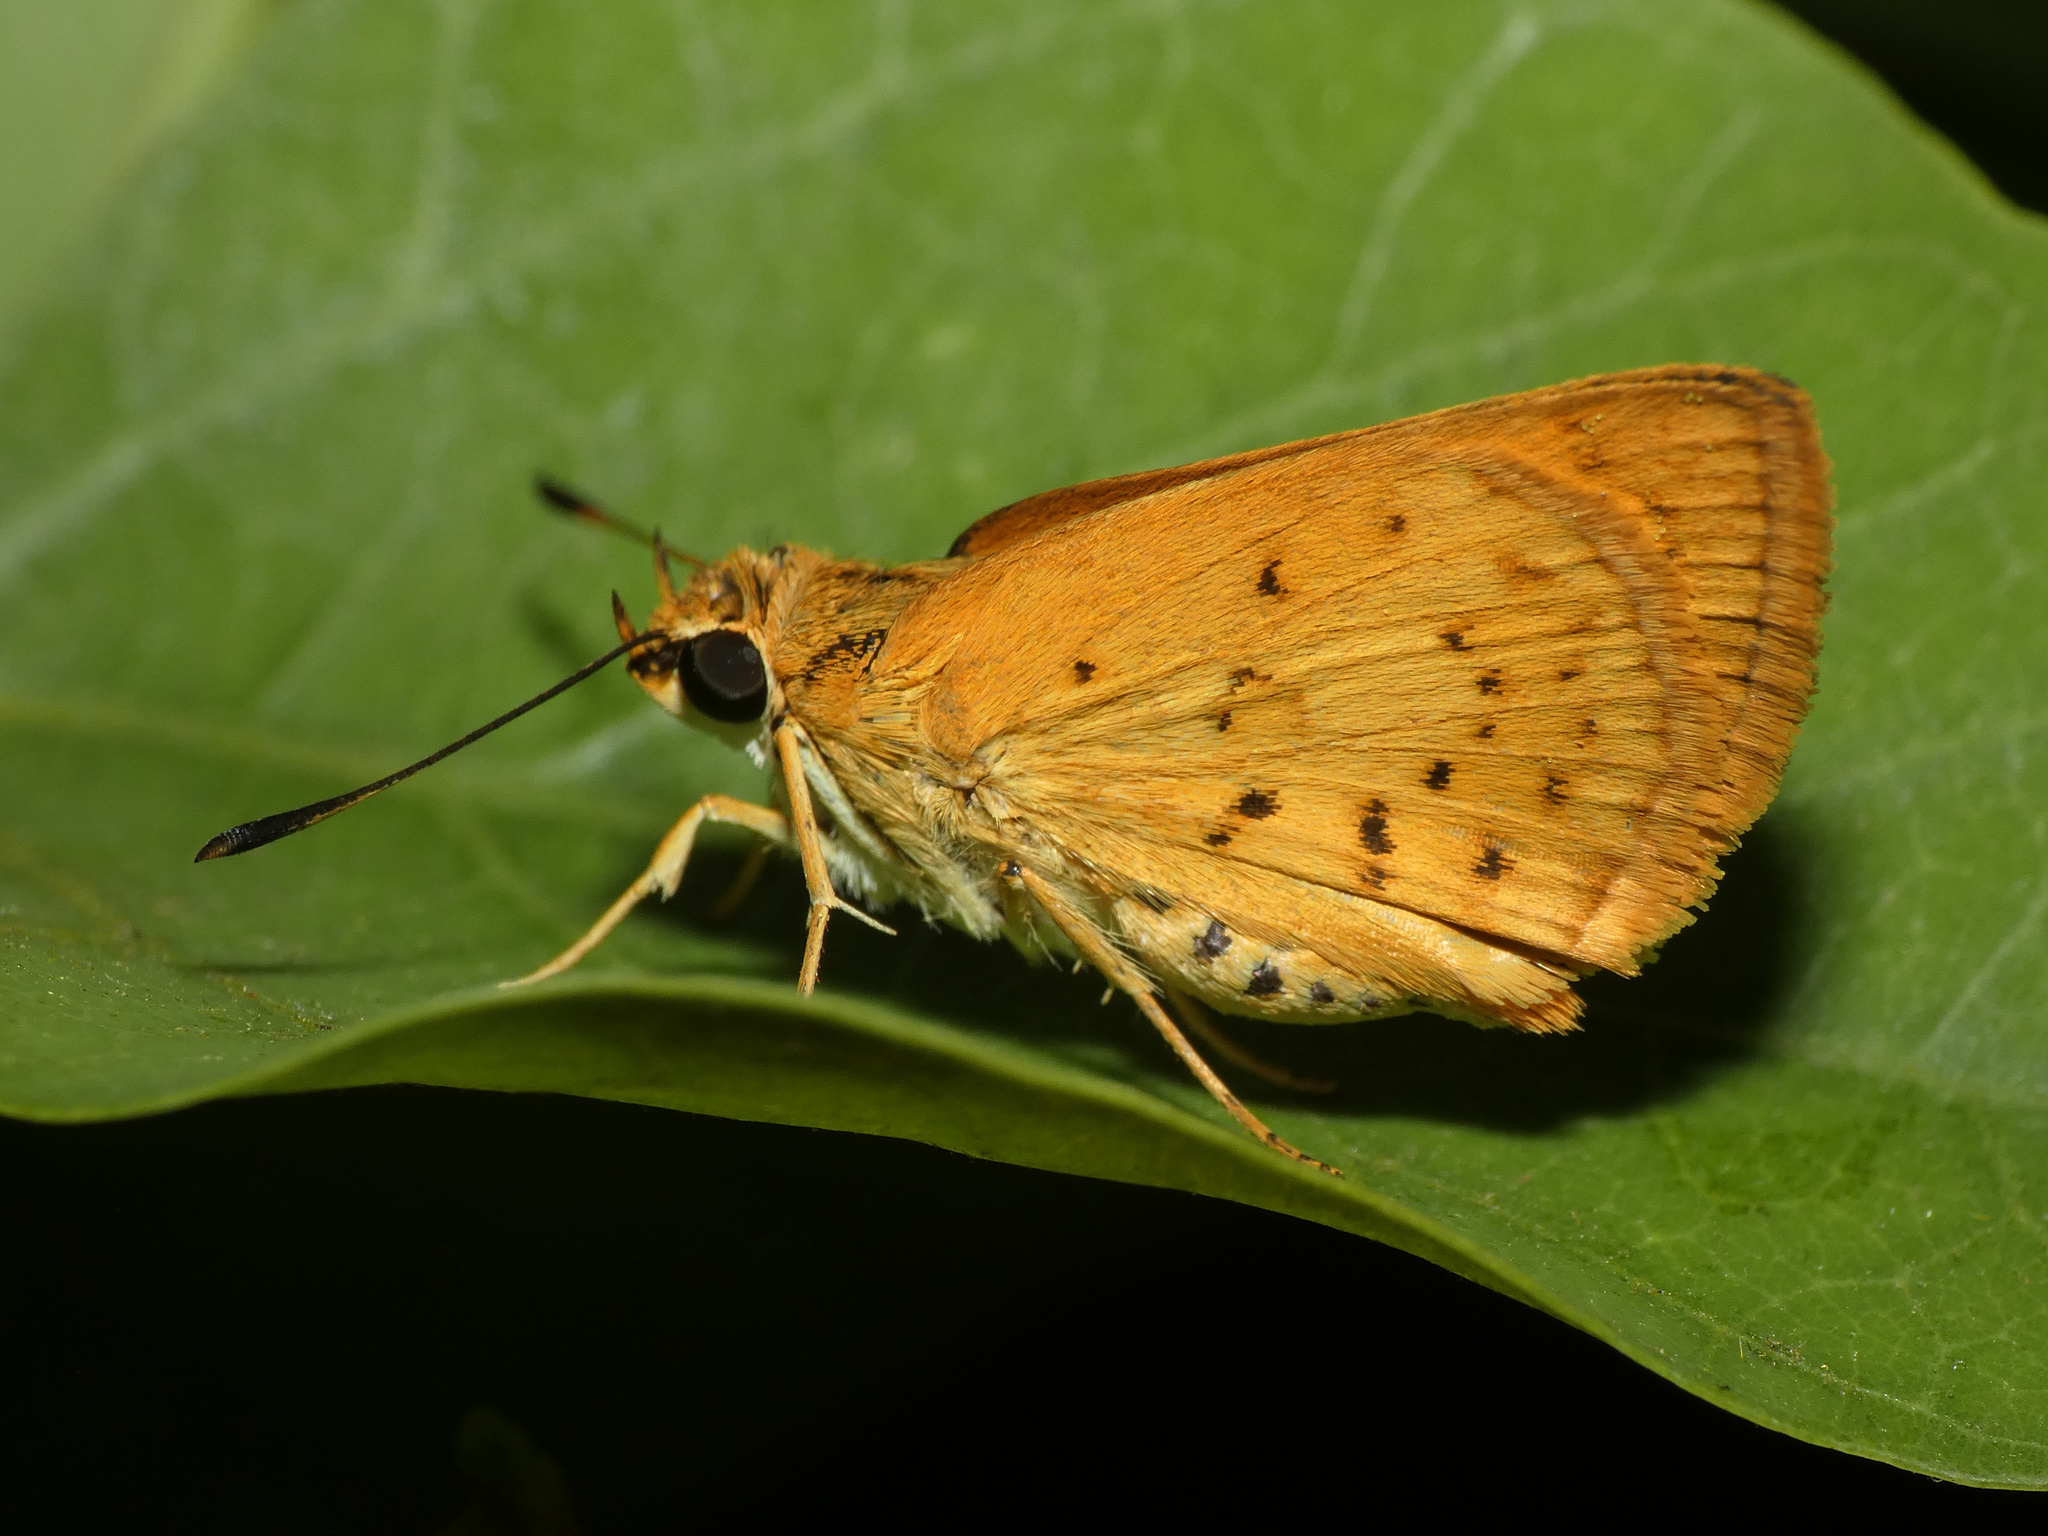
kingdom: Animalia
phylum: Arthropoda
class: Insecta
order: Lepidoptera
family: Hesperiidae
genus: Acada
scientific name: Acada biseriatus
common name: Axehead orange
